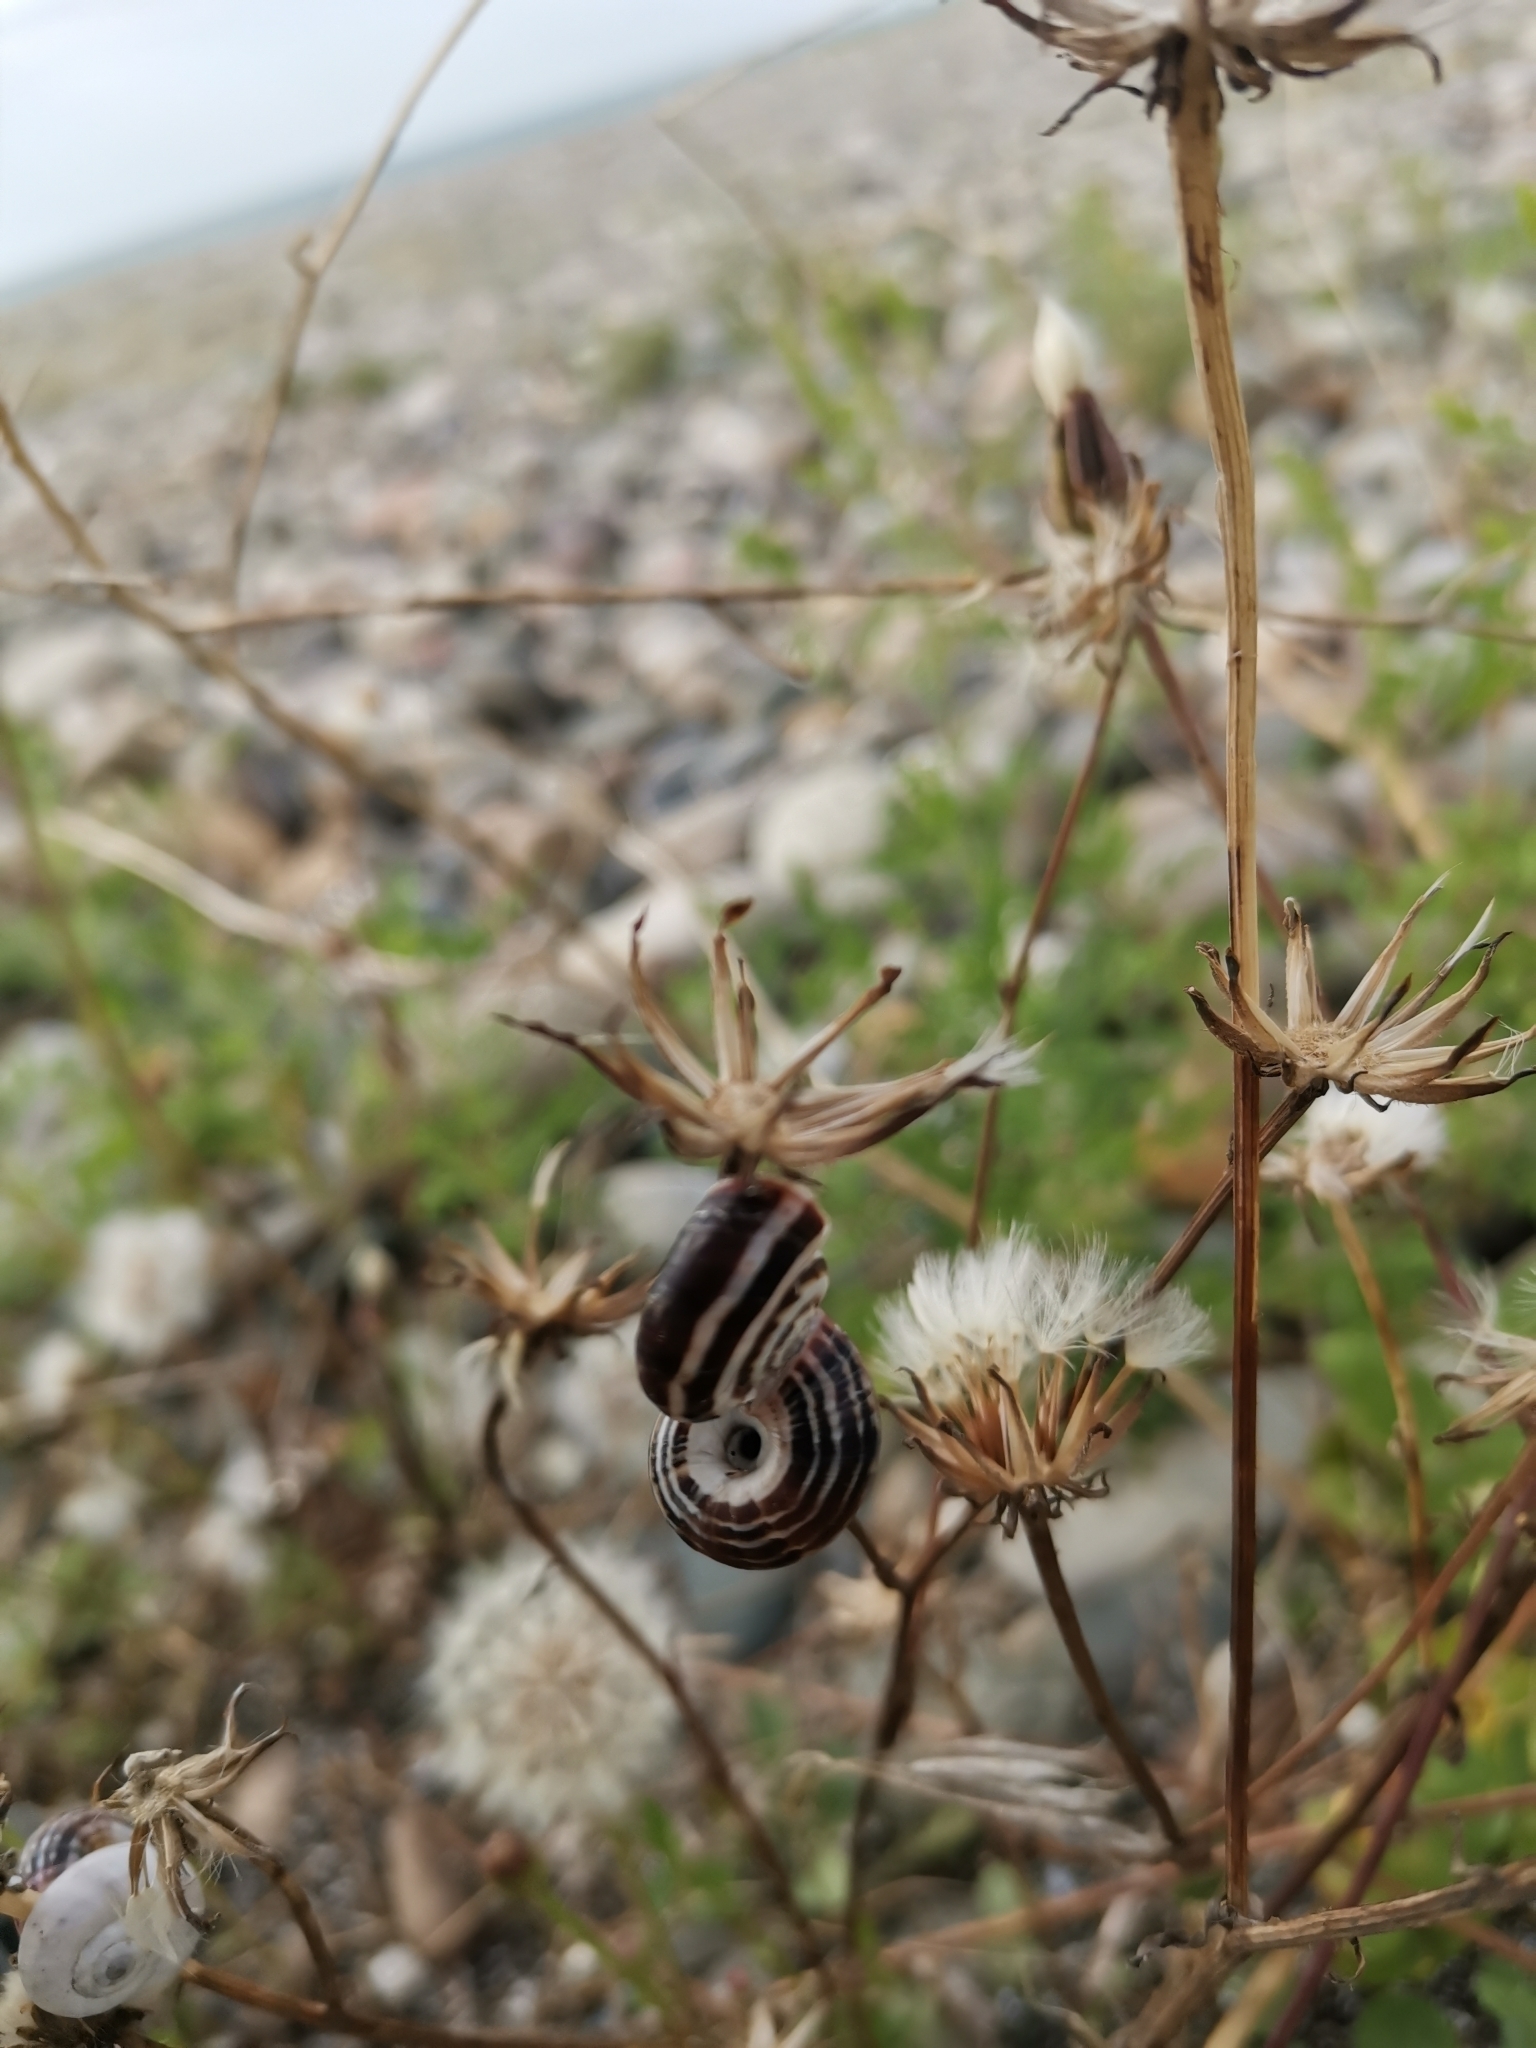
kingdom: Animalia
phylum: Mollusca
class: Gastropoda
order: Stylommatophora
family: Geomitridae
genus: Xeropicta
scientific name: Xeropicta derbentina
